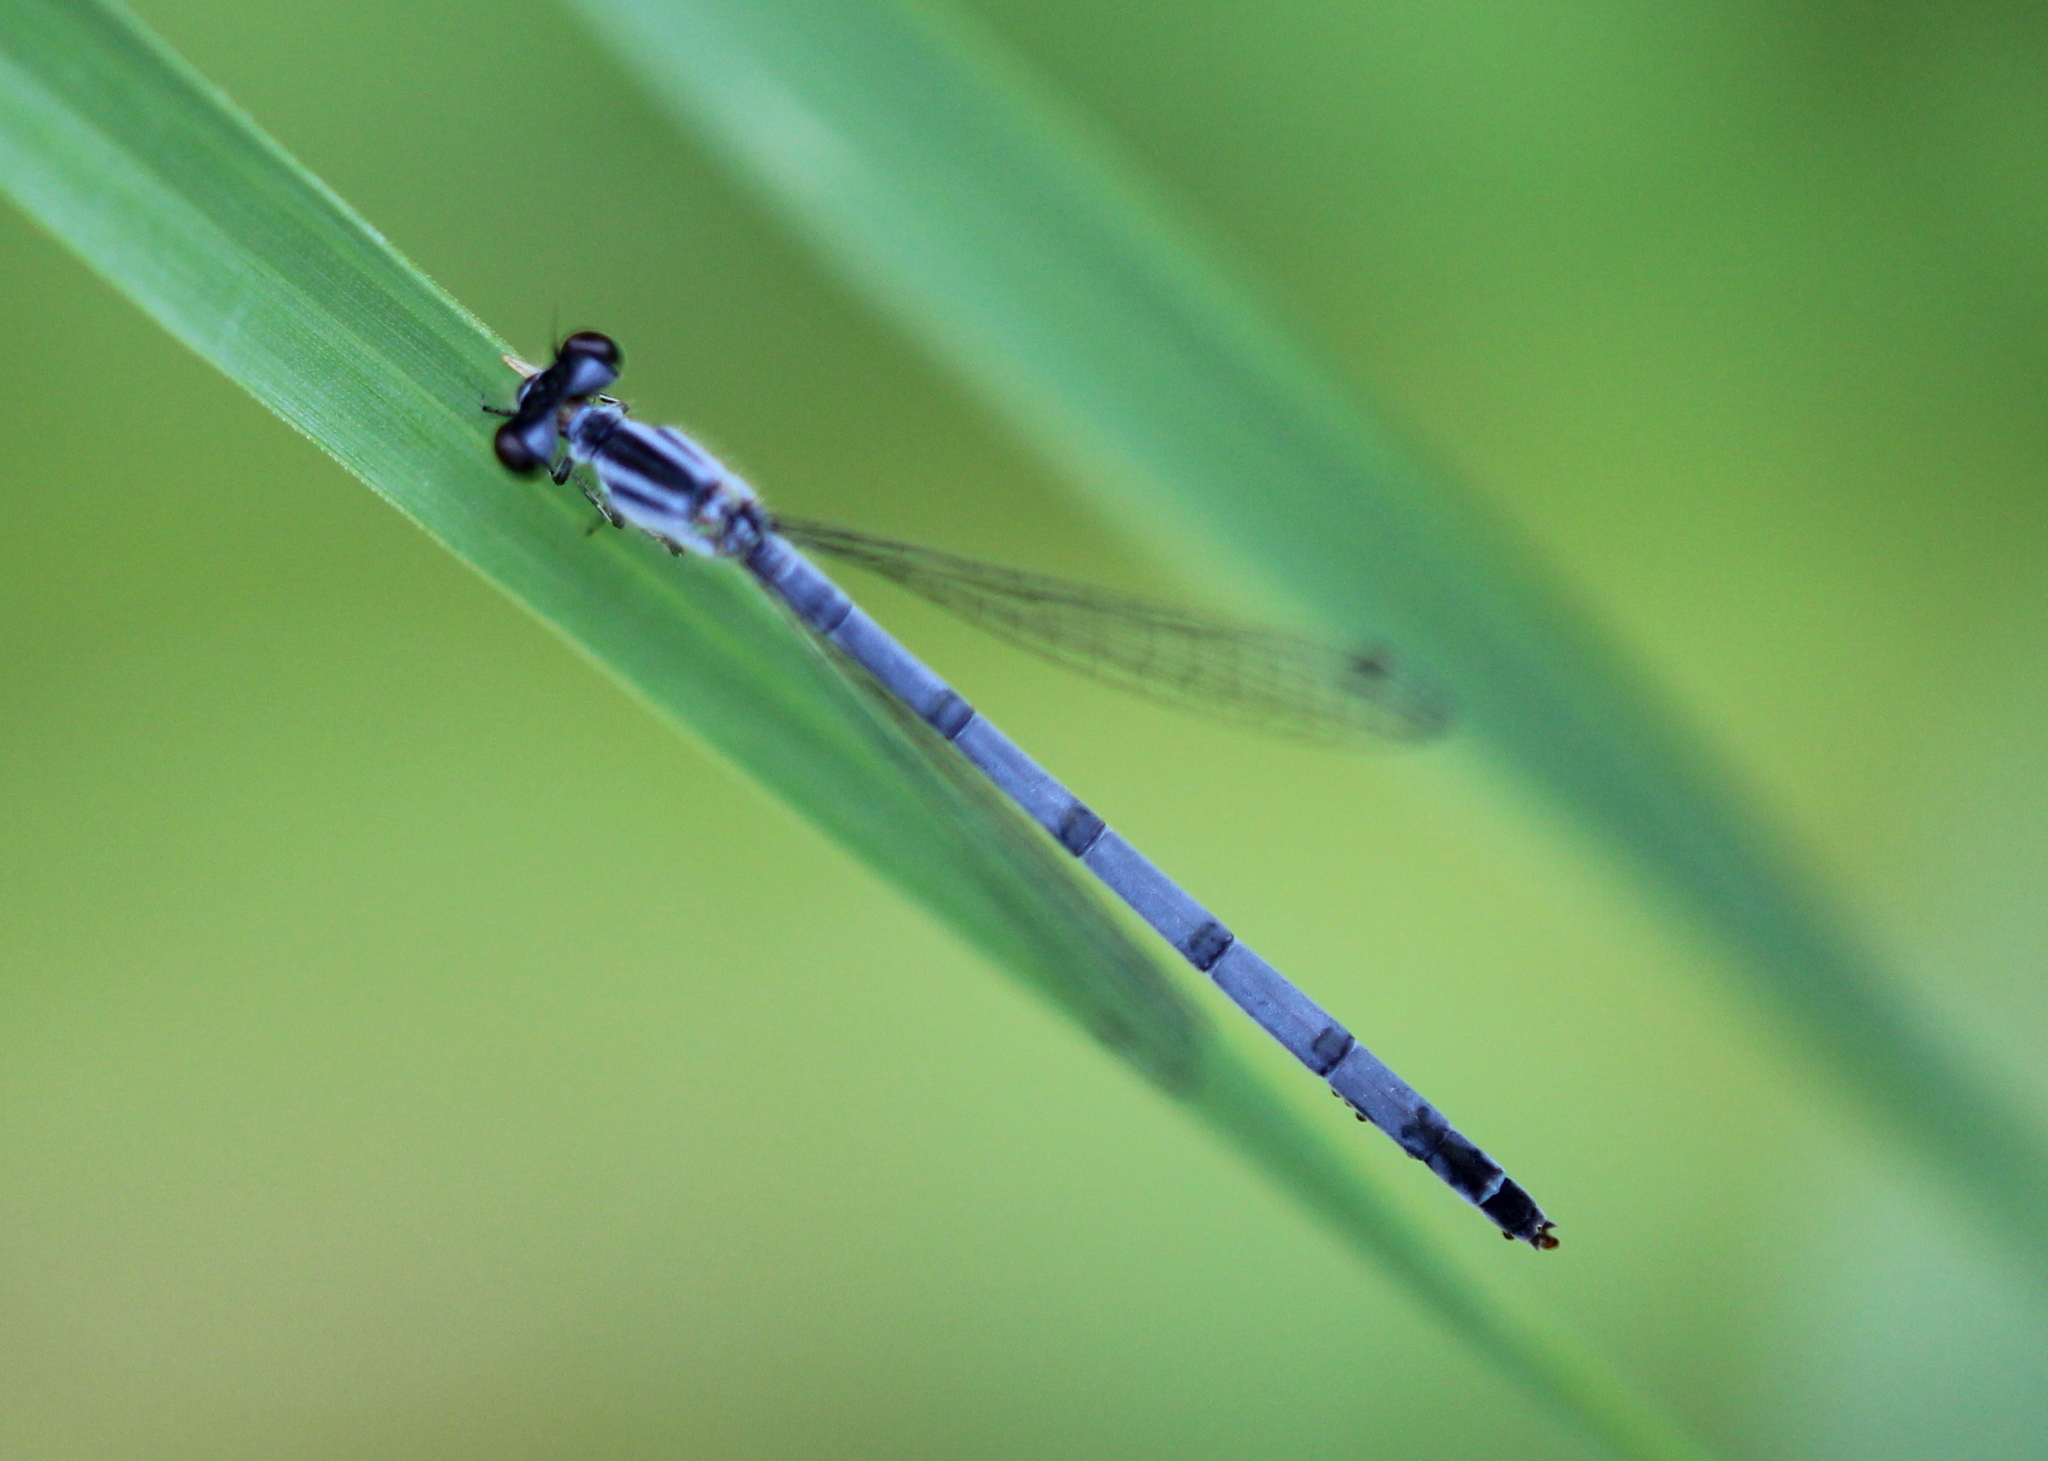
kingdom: Animalia
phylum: Arthropoda
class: Insecta
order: Odonata
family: Coenagrionidae
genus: Ischnura
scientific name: Ischnura verticalis
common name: Eastern forktail
